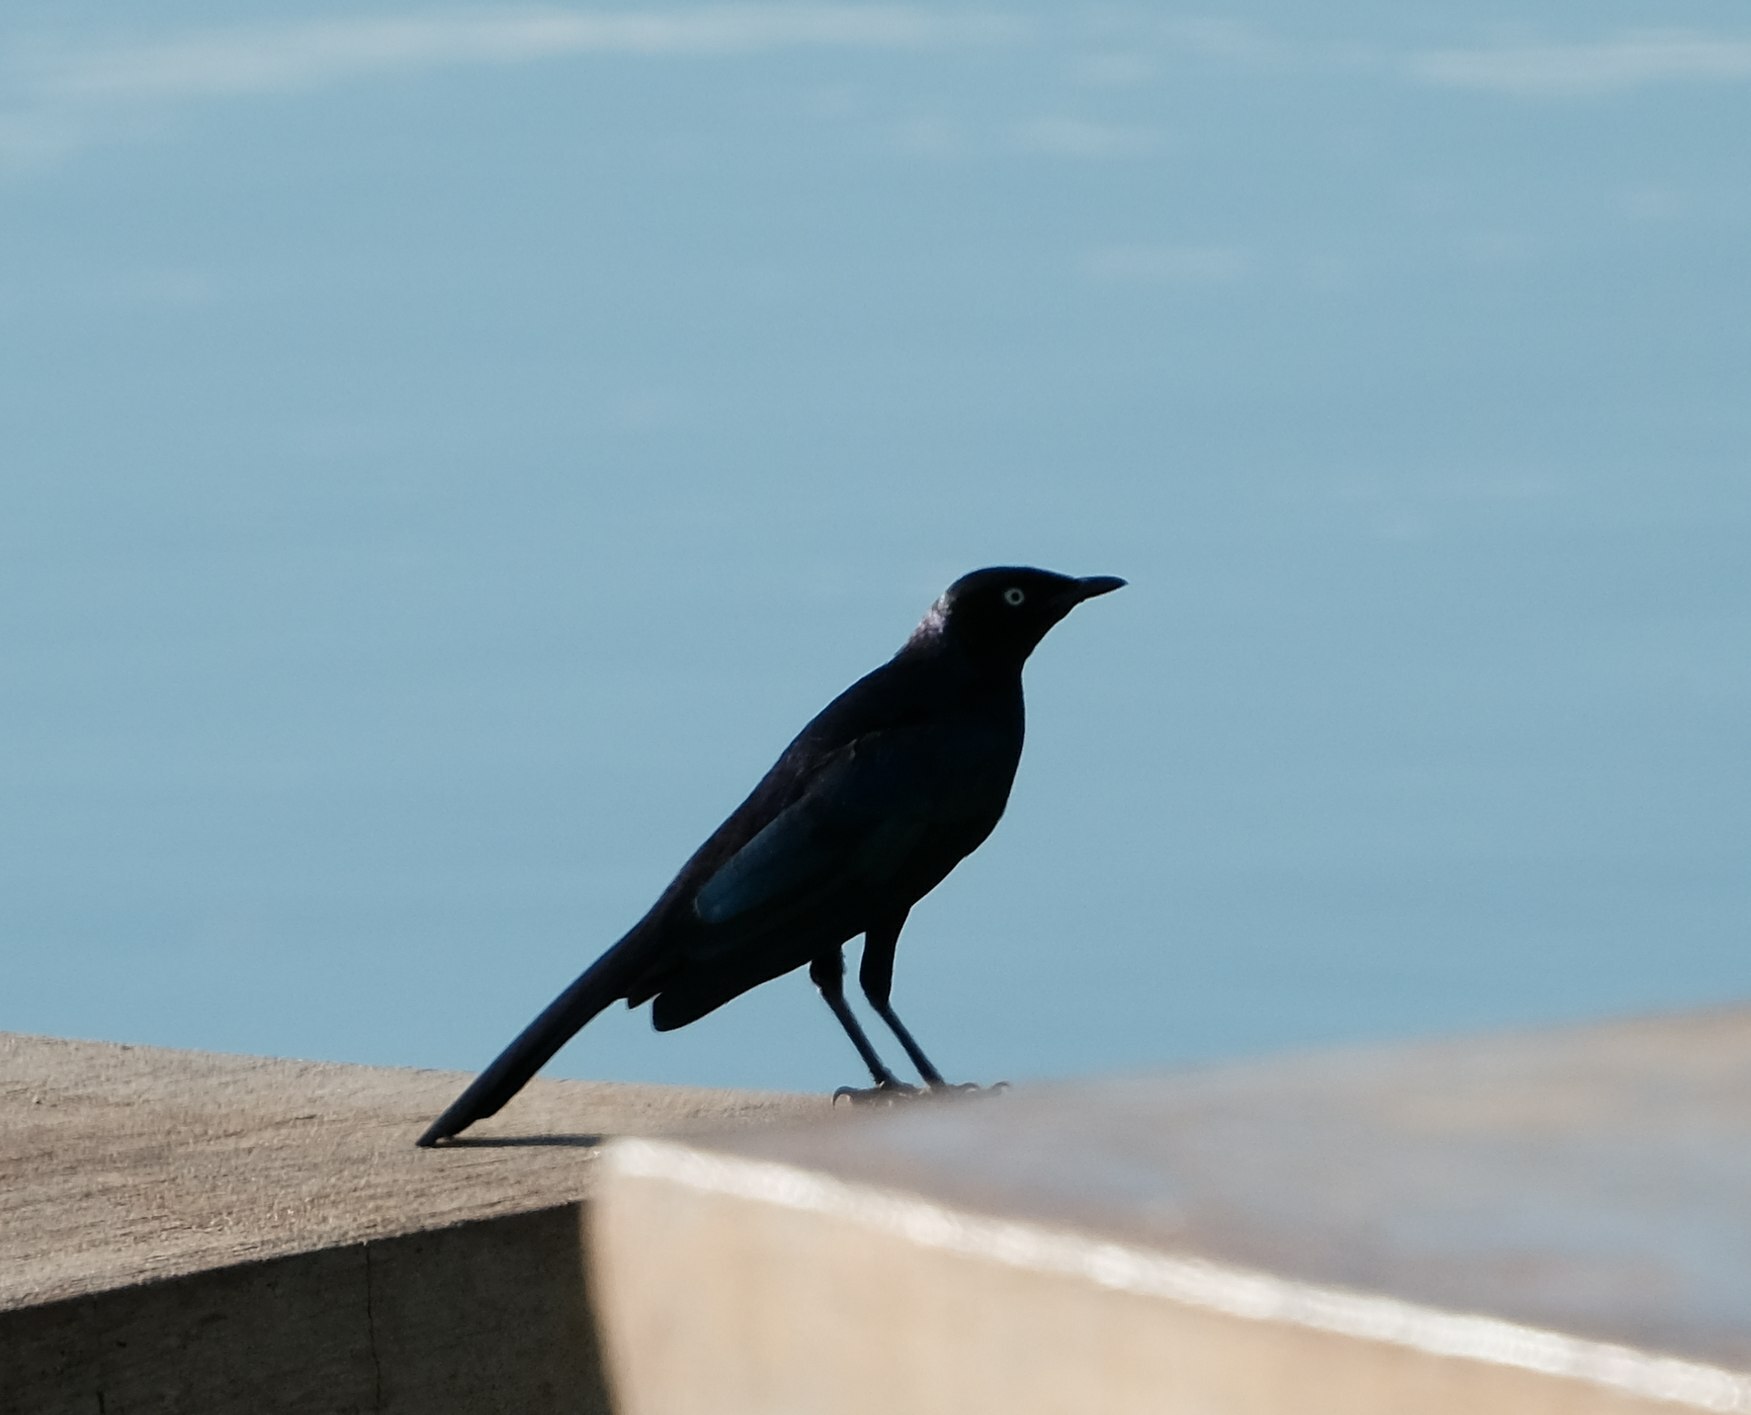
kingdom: Animalia
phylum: Chordata
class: Aves
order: Passeriformes
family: Sturnidae
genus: Lamprotornis
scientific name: Lamprotornis purpuroptera
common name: Rüppell's starling
